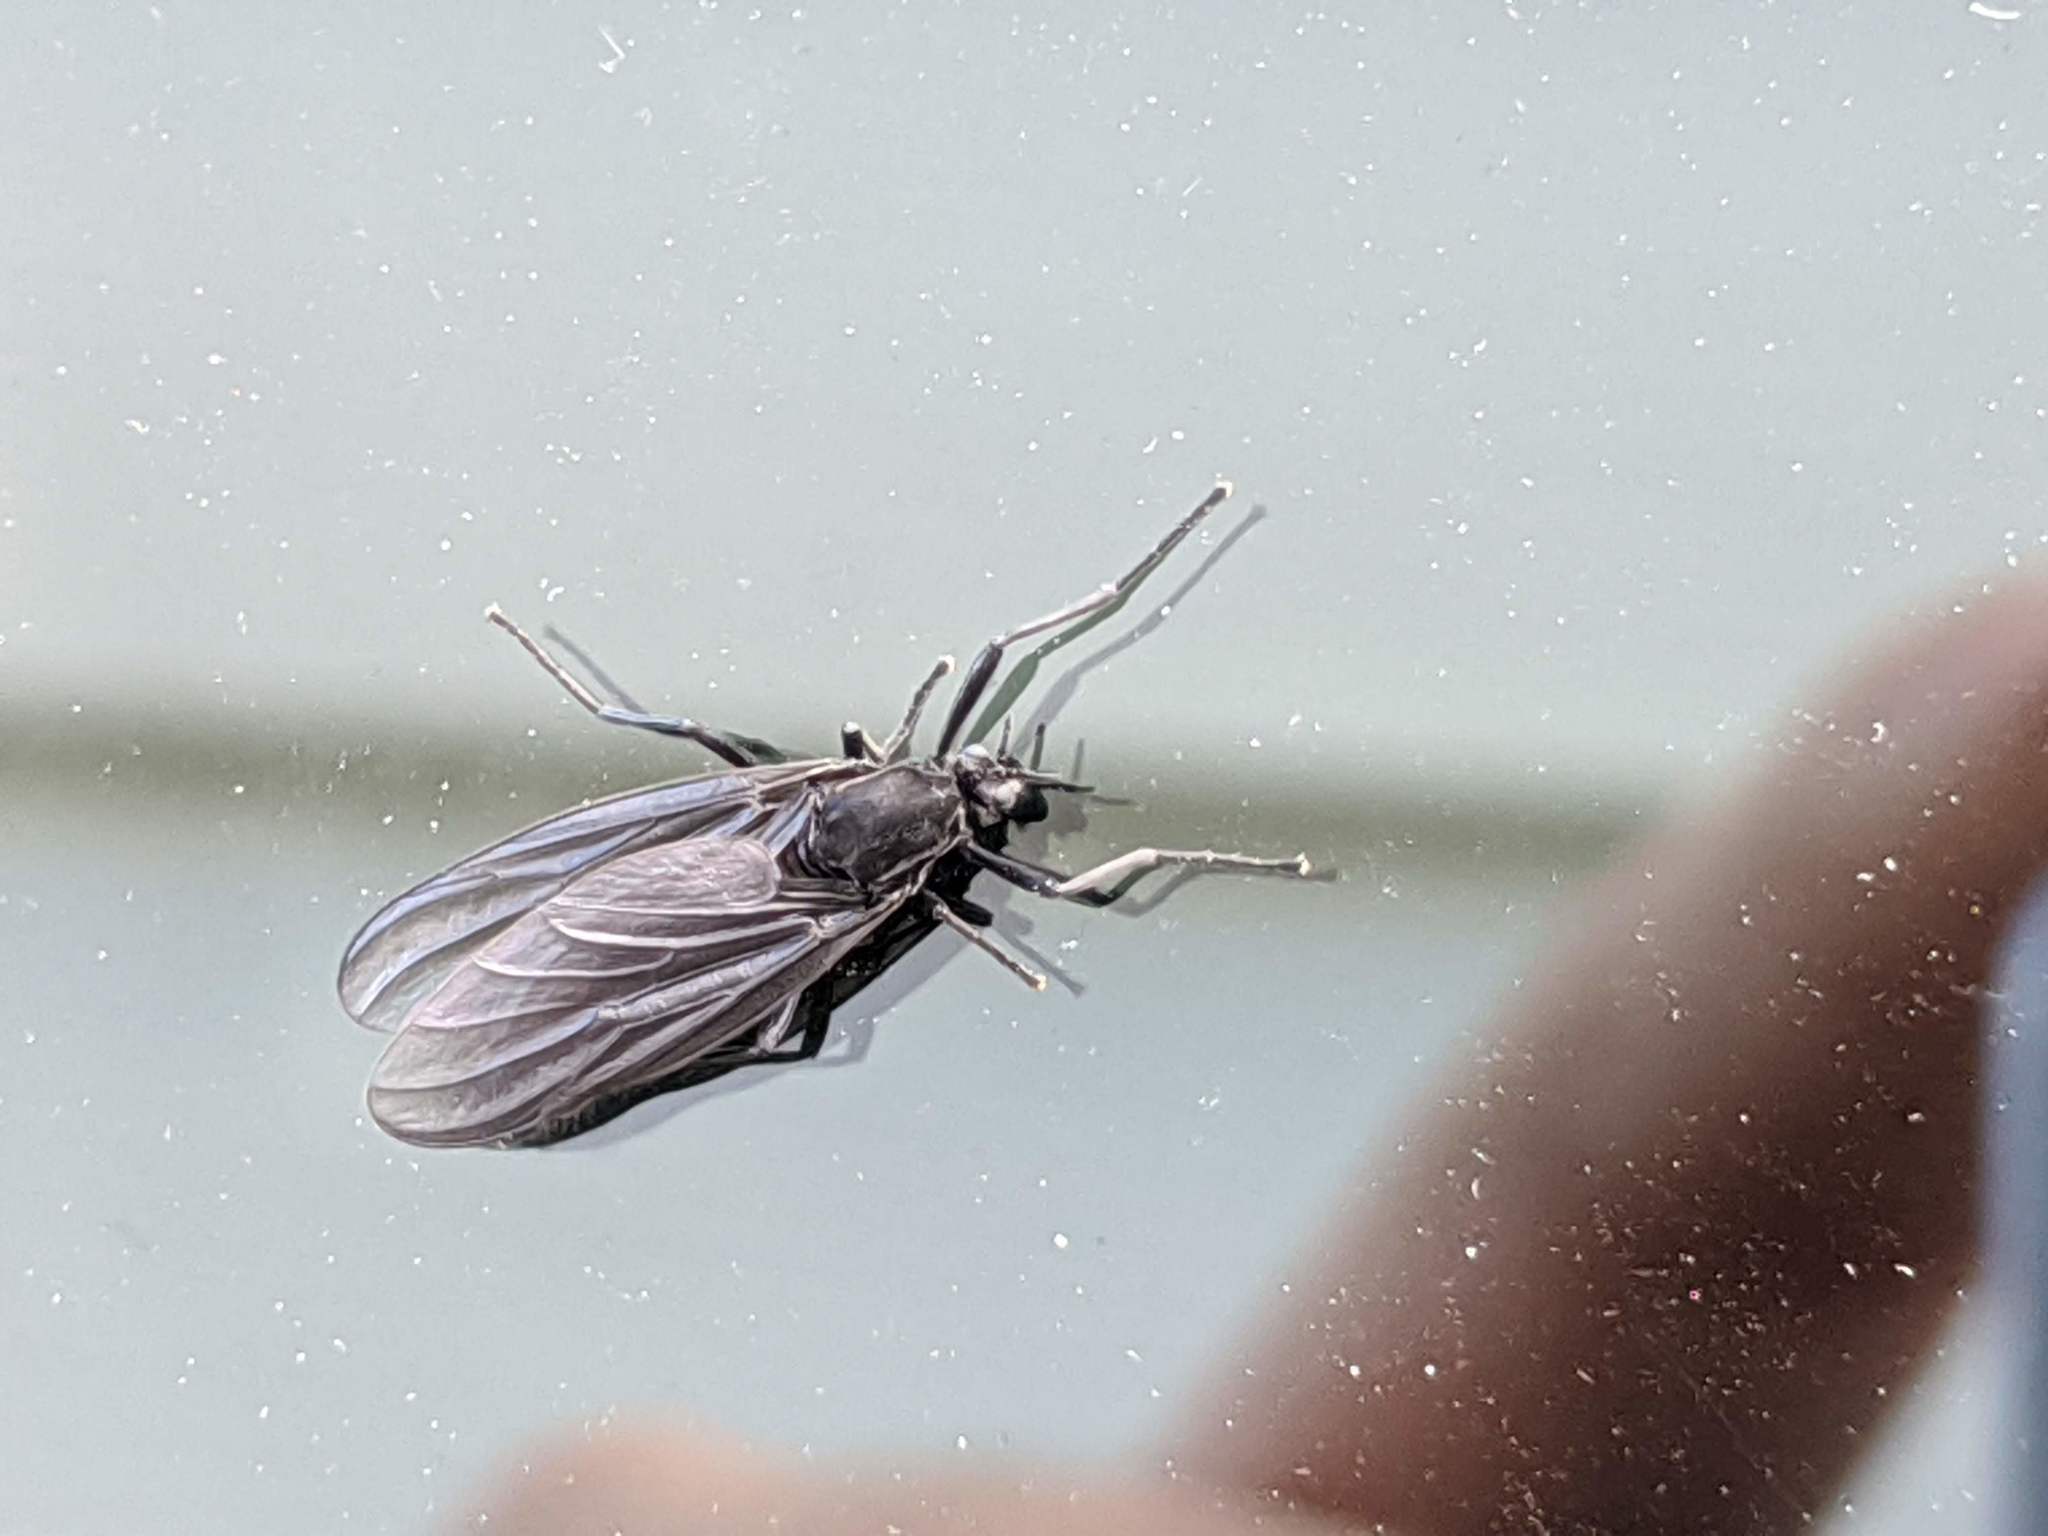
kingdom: Animalia
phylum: Arthropoda
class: Insecta
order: Diptera
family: Bibionidae
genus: Penthetria
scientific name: Penthetria heteroptera
